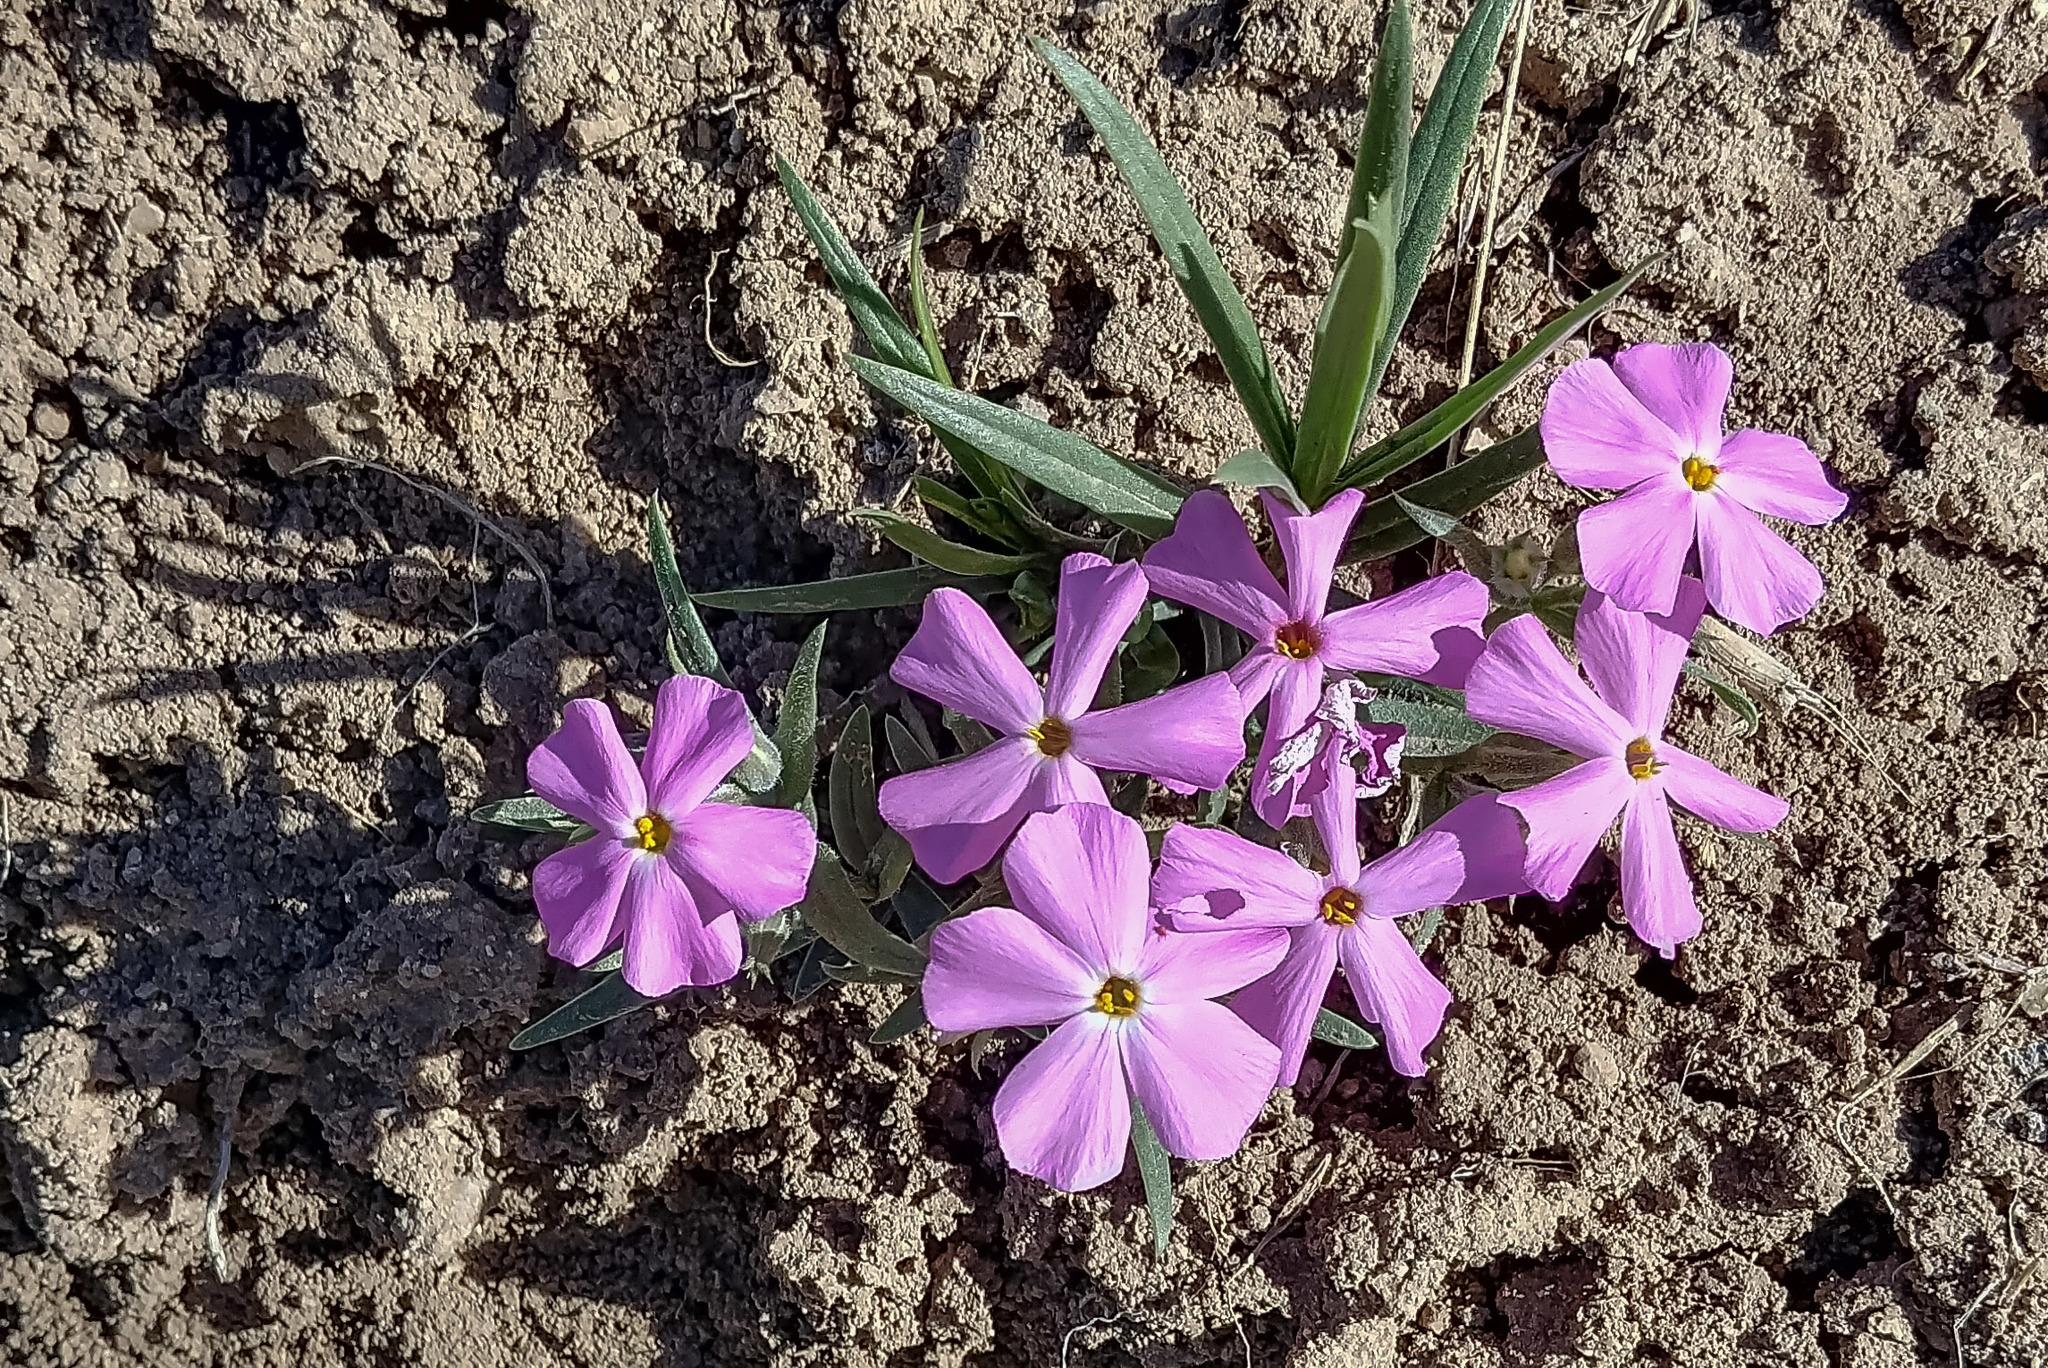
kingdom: Plantae
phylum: Tracheophyta
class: Magnoliopsida
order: Ericales
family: Polemoniaceae
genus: Phlox
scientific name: Phlox longifolia
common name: Longleaf phlox
